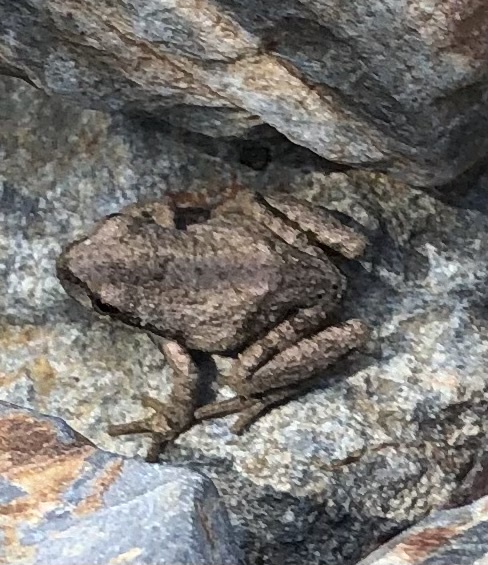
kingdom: Animalia
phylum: Chordata
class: Amphibia
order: Anura
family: Hylidae
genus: Pseudacris
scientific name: Pseudacris regilla
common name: Pacific chorus frog
